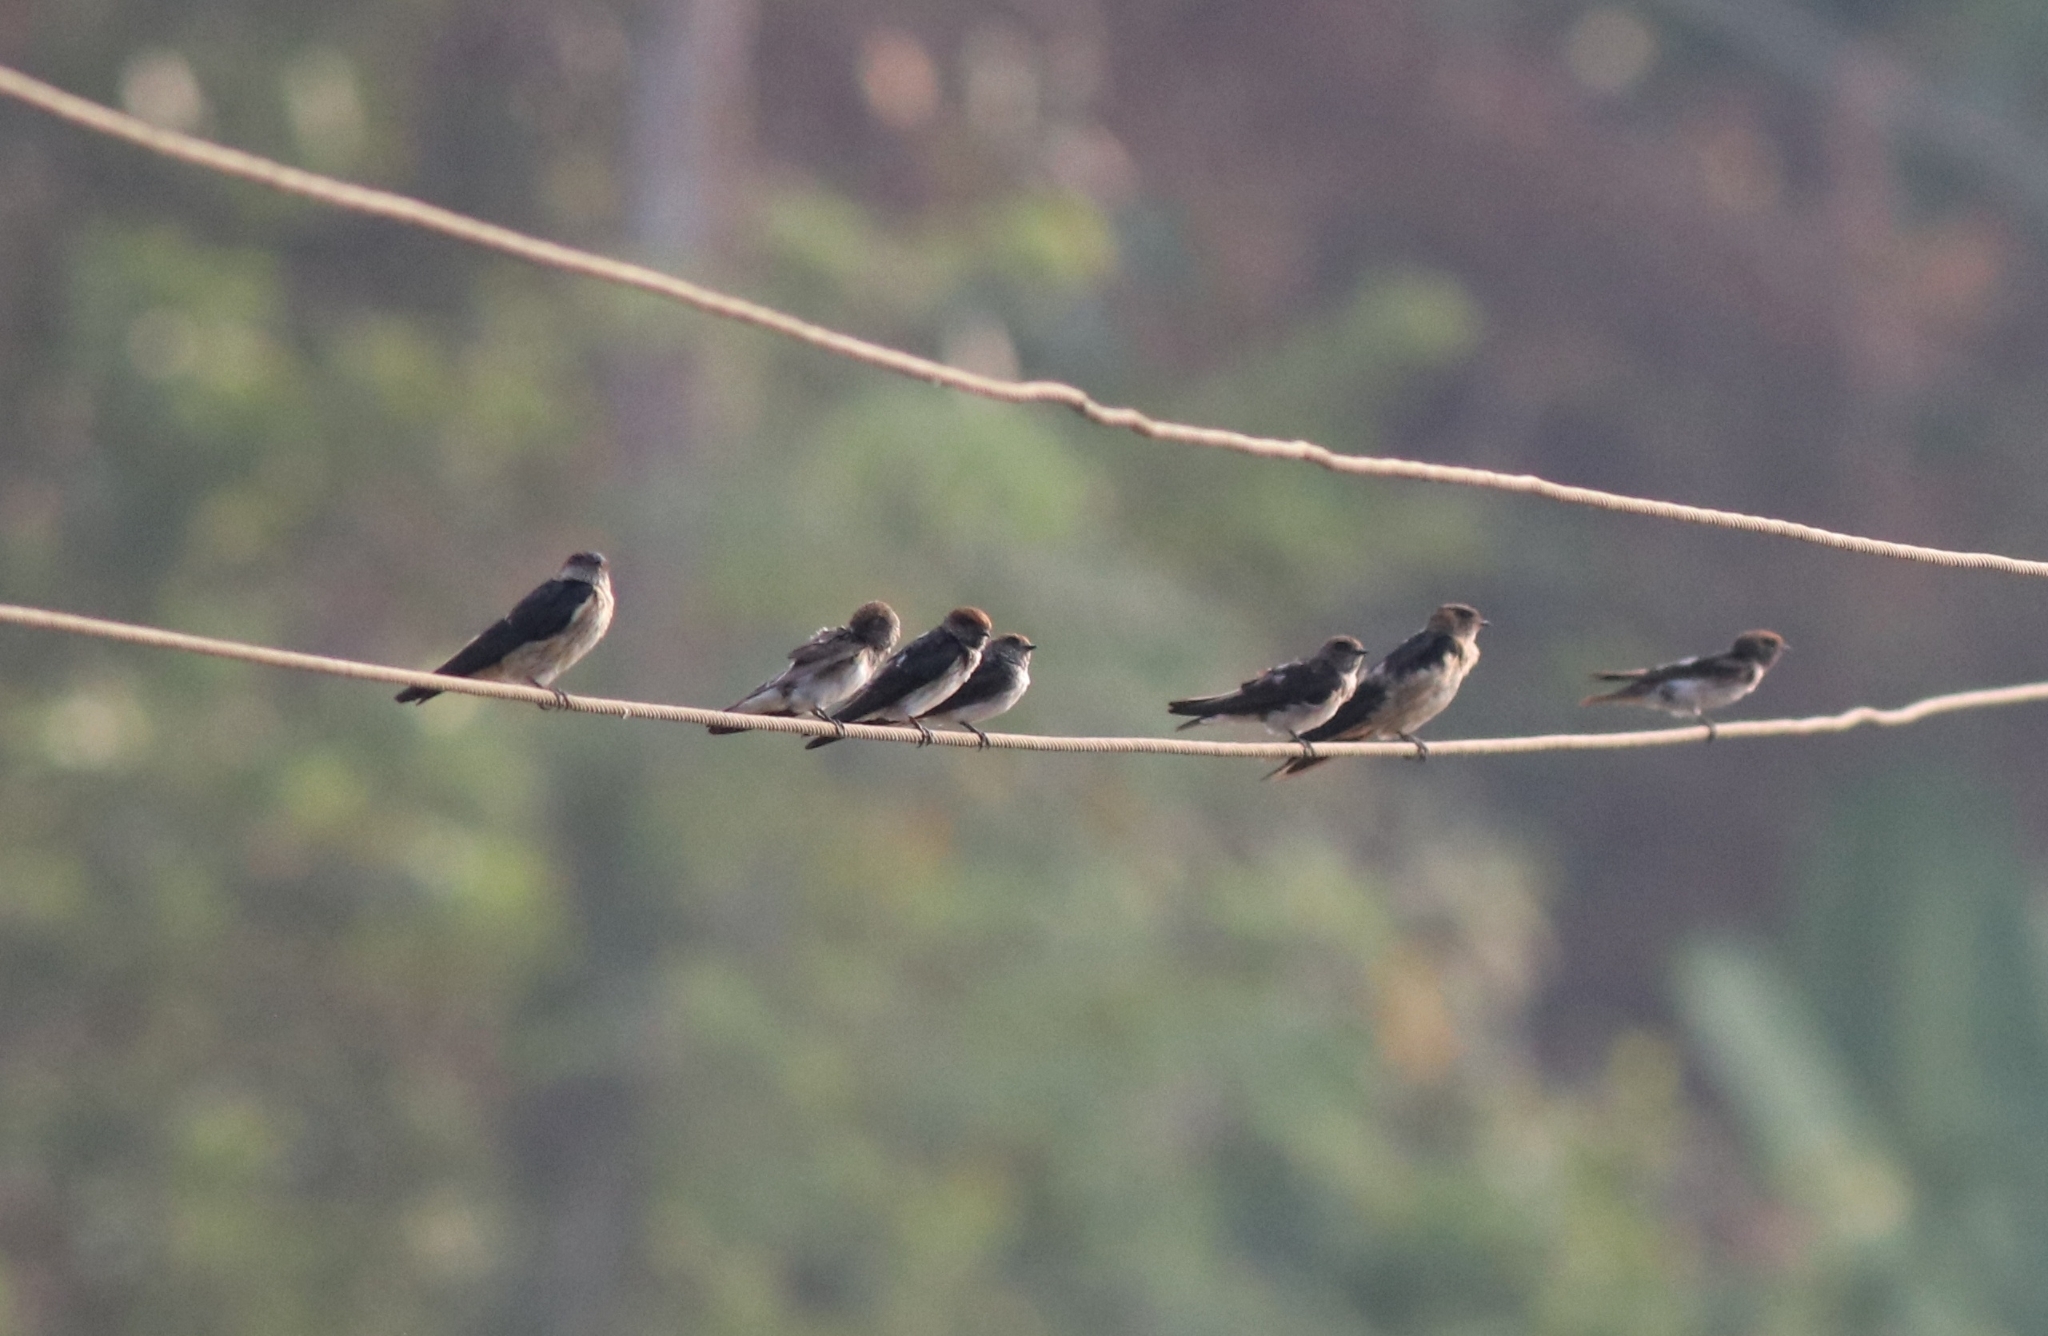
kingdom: Animalia
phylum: Chordata
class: Aves
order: Passeriformes
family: Hirundinidae
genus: Cecropis
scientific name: Cecropis daurica
